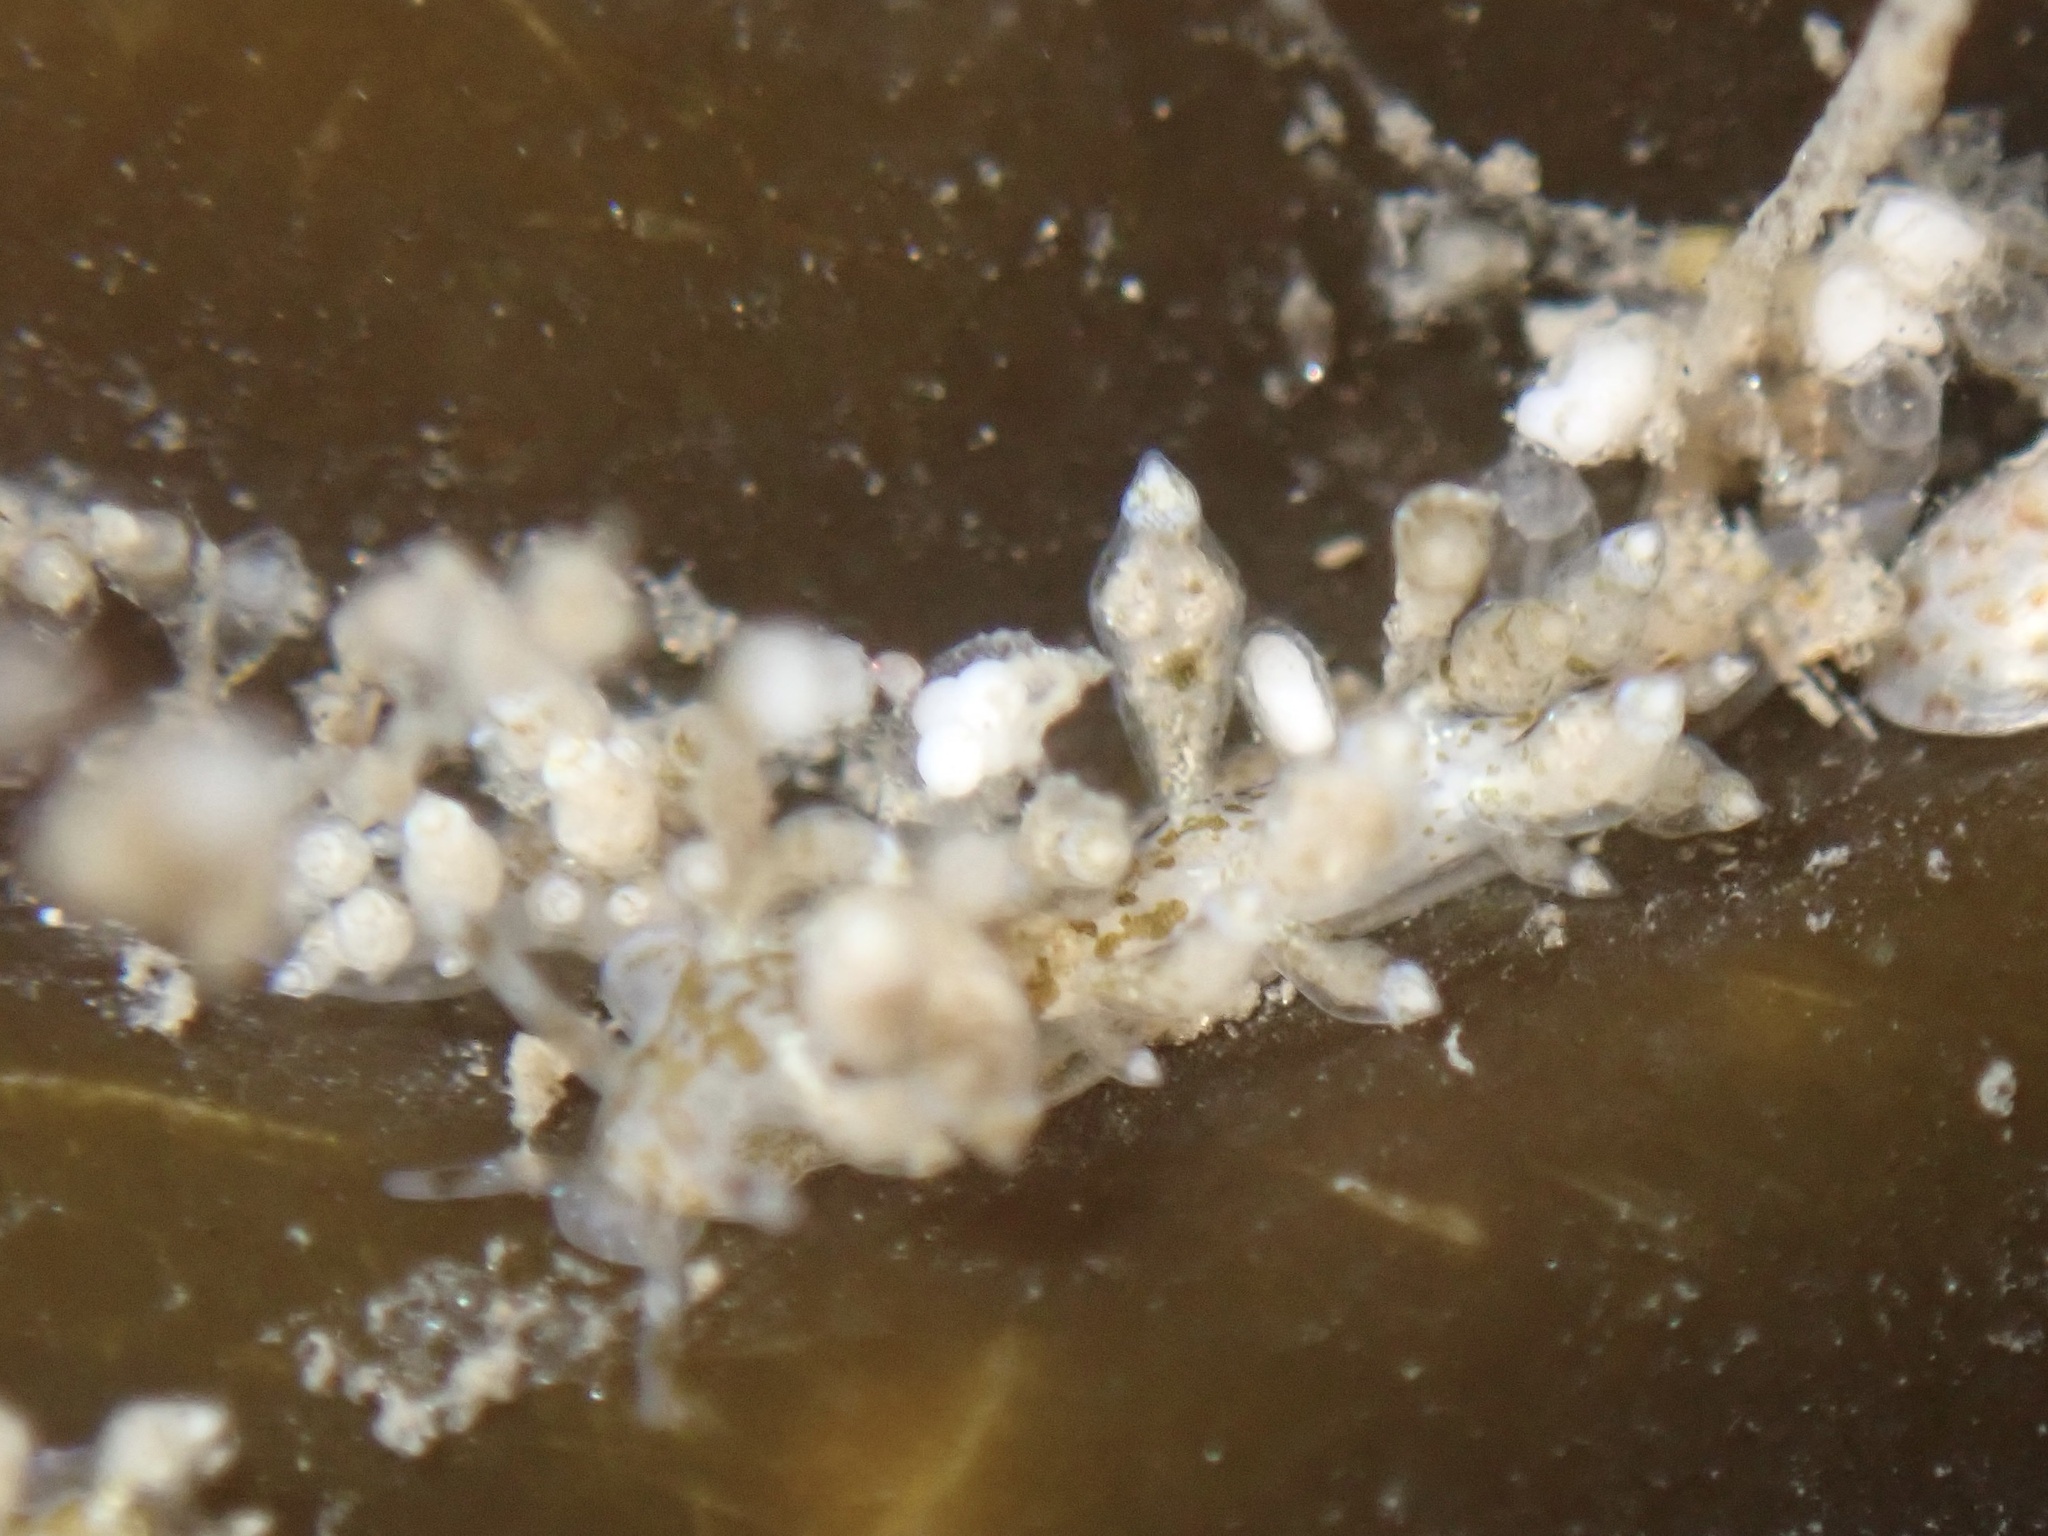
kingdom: Animalia
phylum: Mollusca
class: Gastropoda
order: Nudibranchia
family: Eubranchidae
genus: Eubranchus
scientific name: Eubranchus olivaceus
